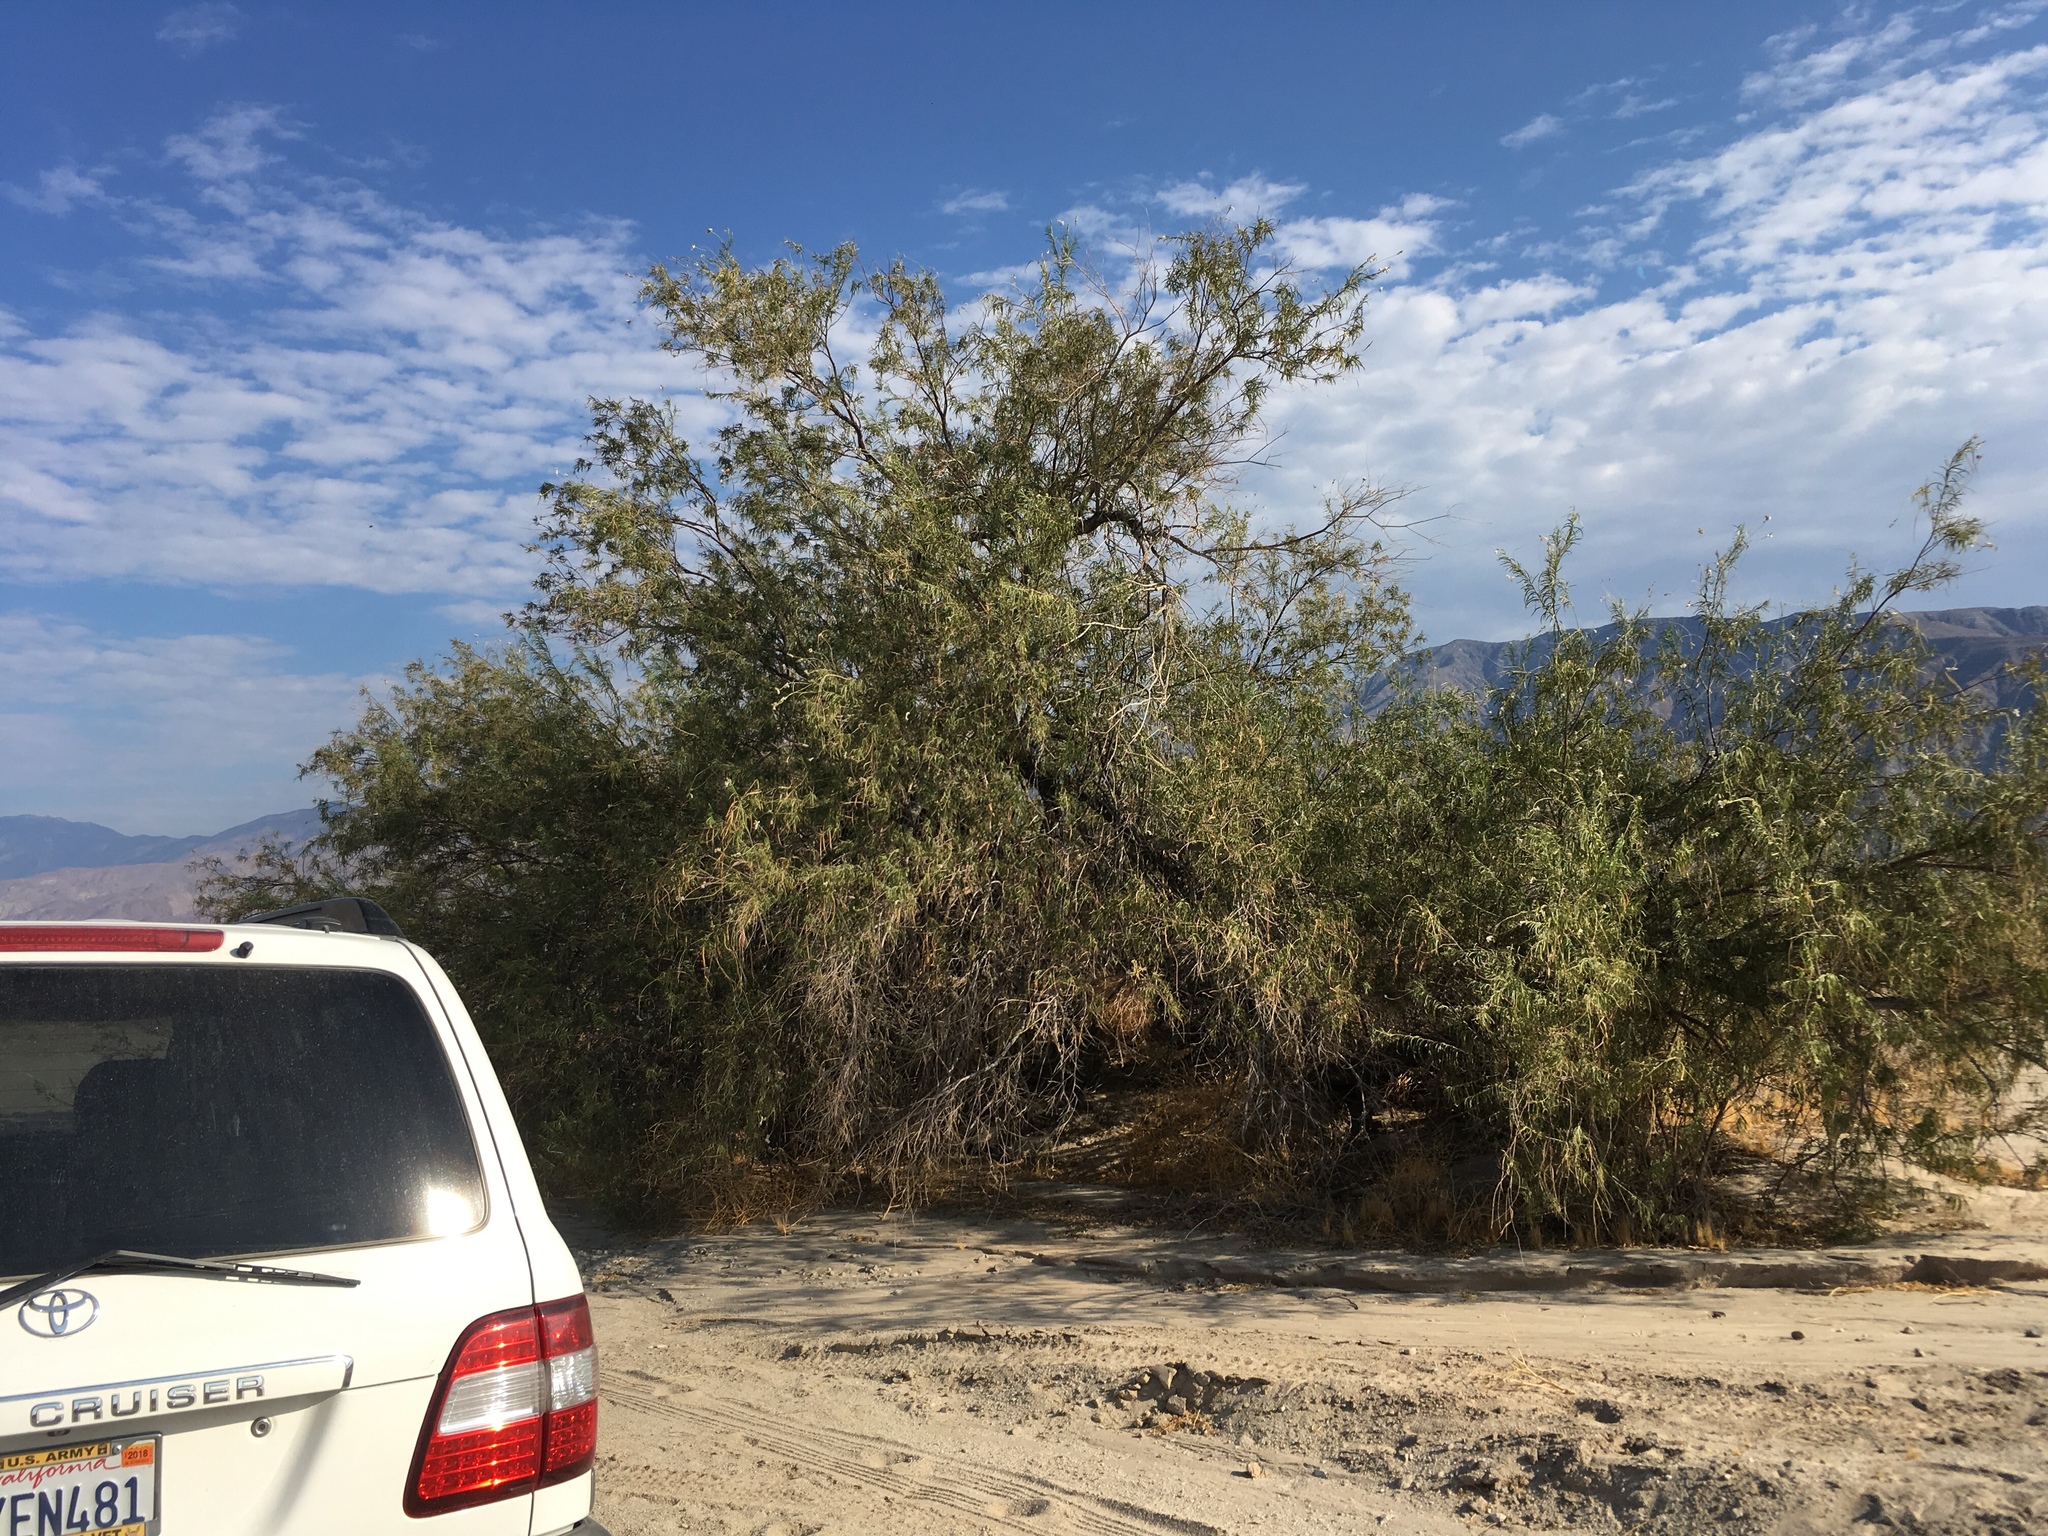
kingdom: Plantae
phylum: Tracheophyta
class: Magnoliopsida
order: Lamiales
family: Bignoniaceae
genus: Chilopsis
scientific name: Chilopsis linearis
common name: Desert-willow
